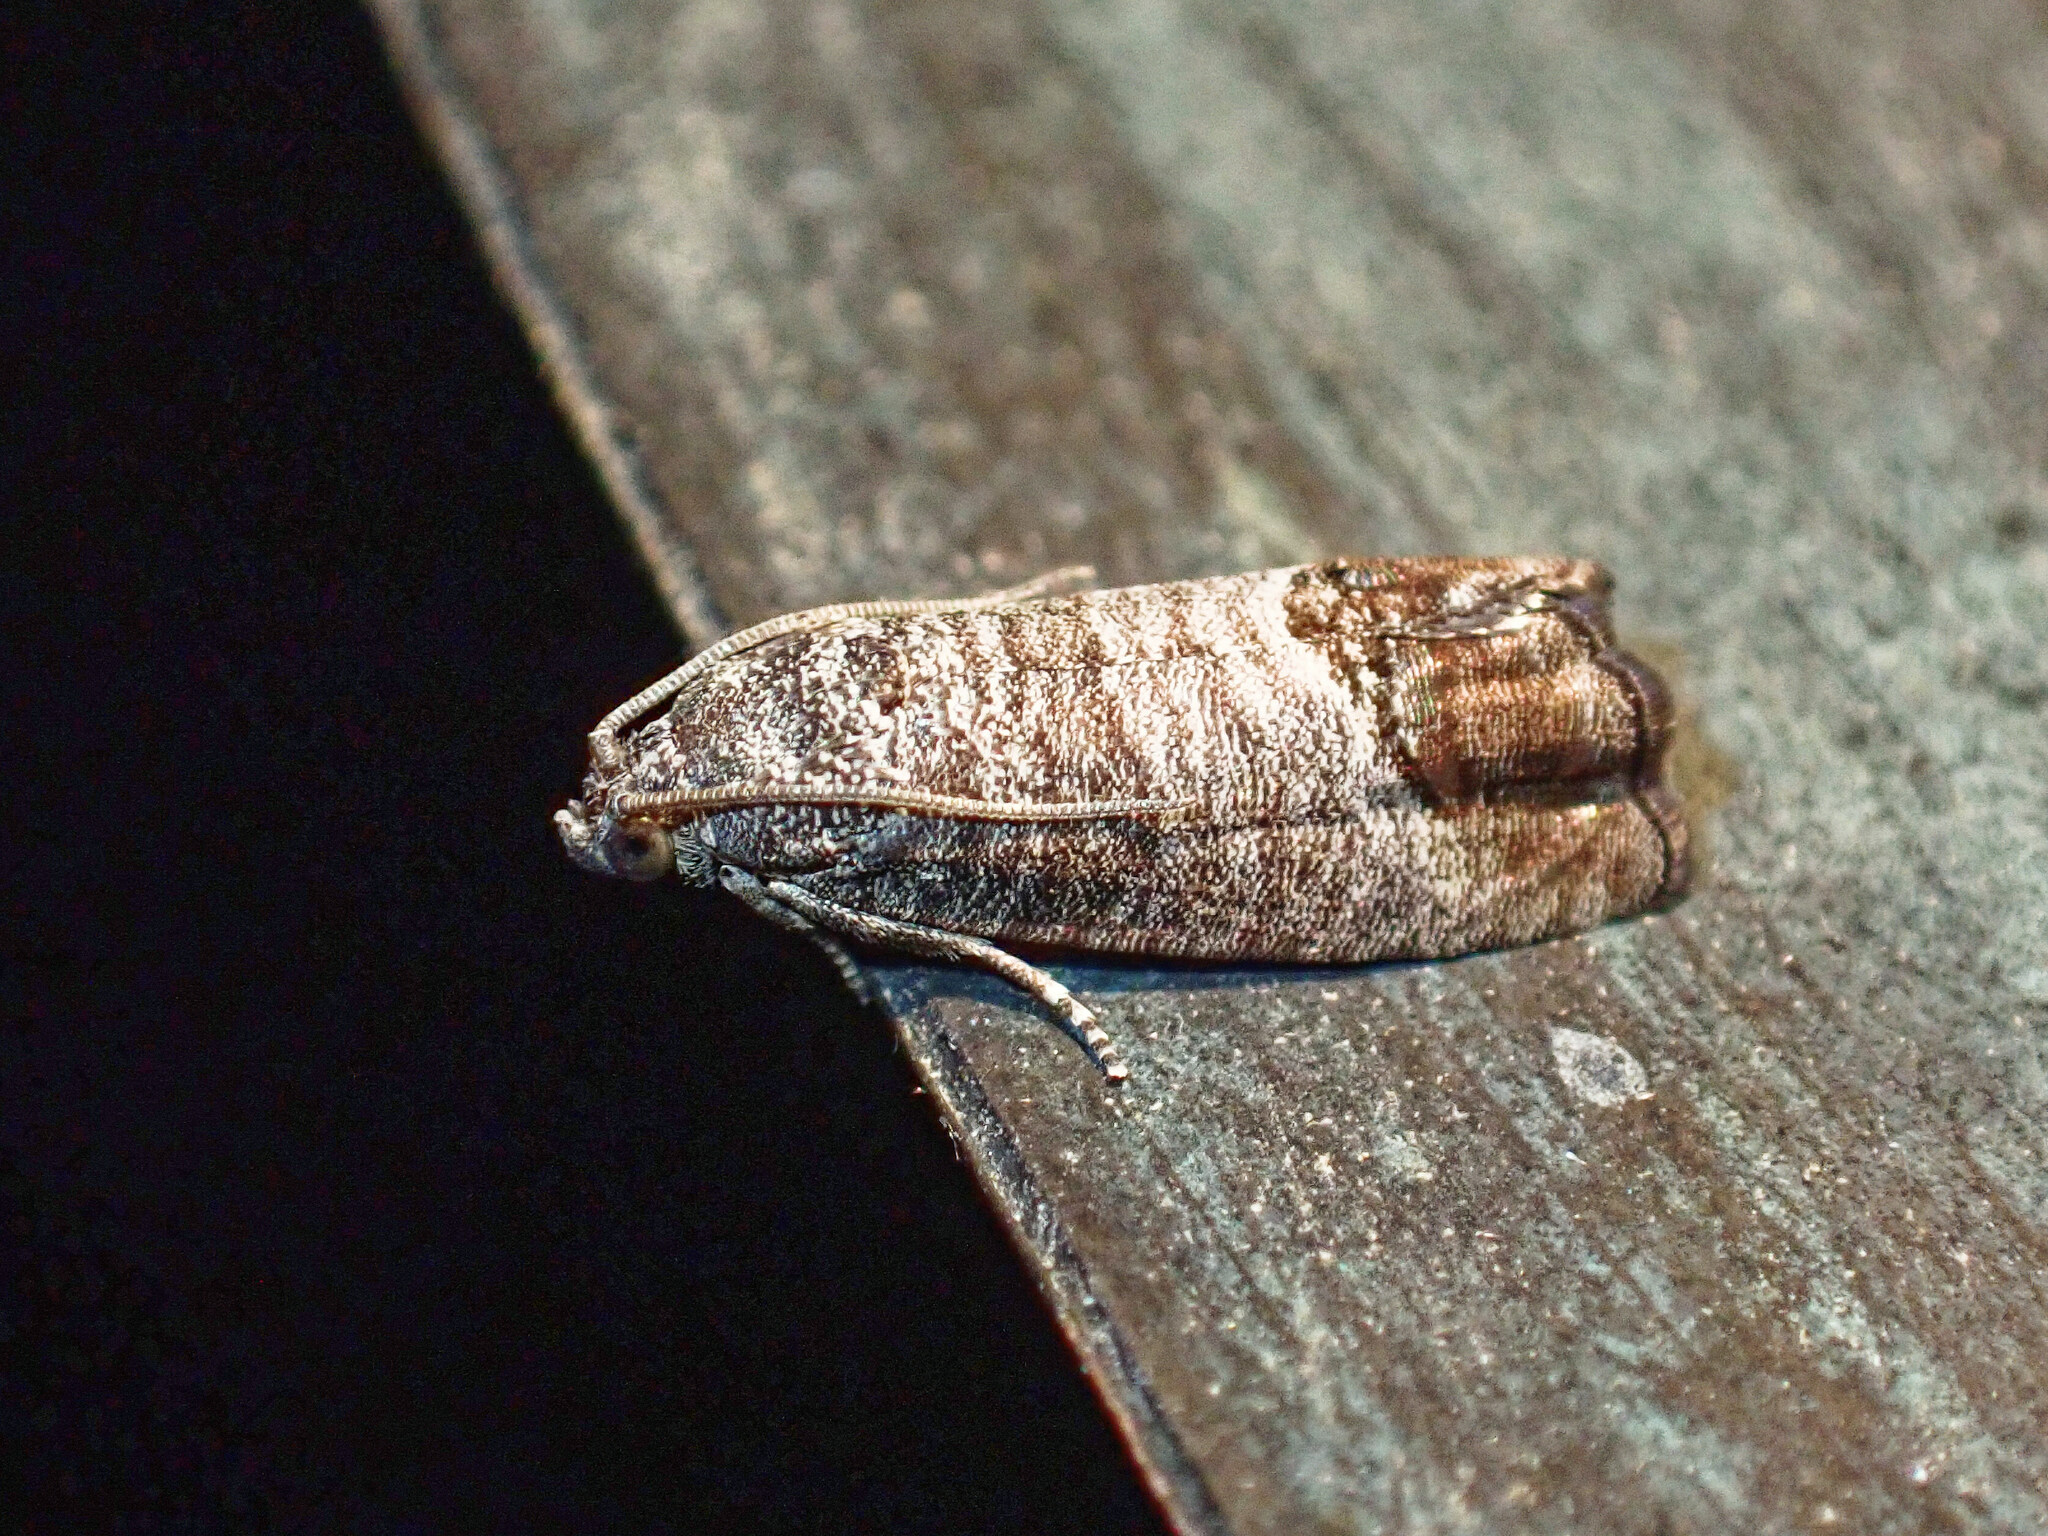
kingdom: Animalia
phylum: Arthropoda
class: Insecta
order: Lepidoptera
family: Tortricidae
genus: Cydia
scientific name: Cydia pomonella
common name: Codling moth
